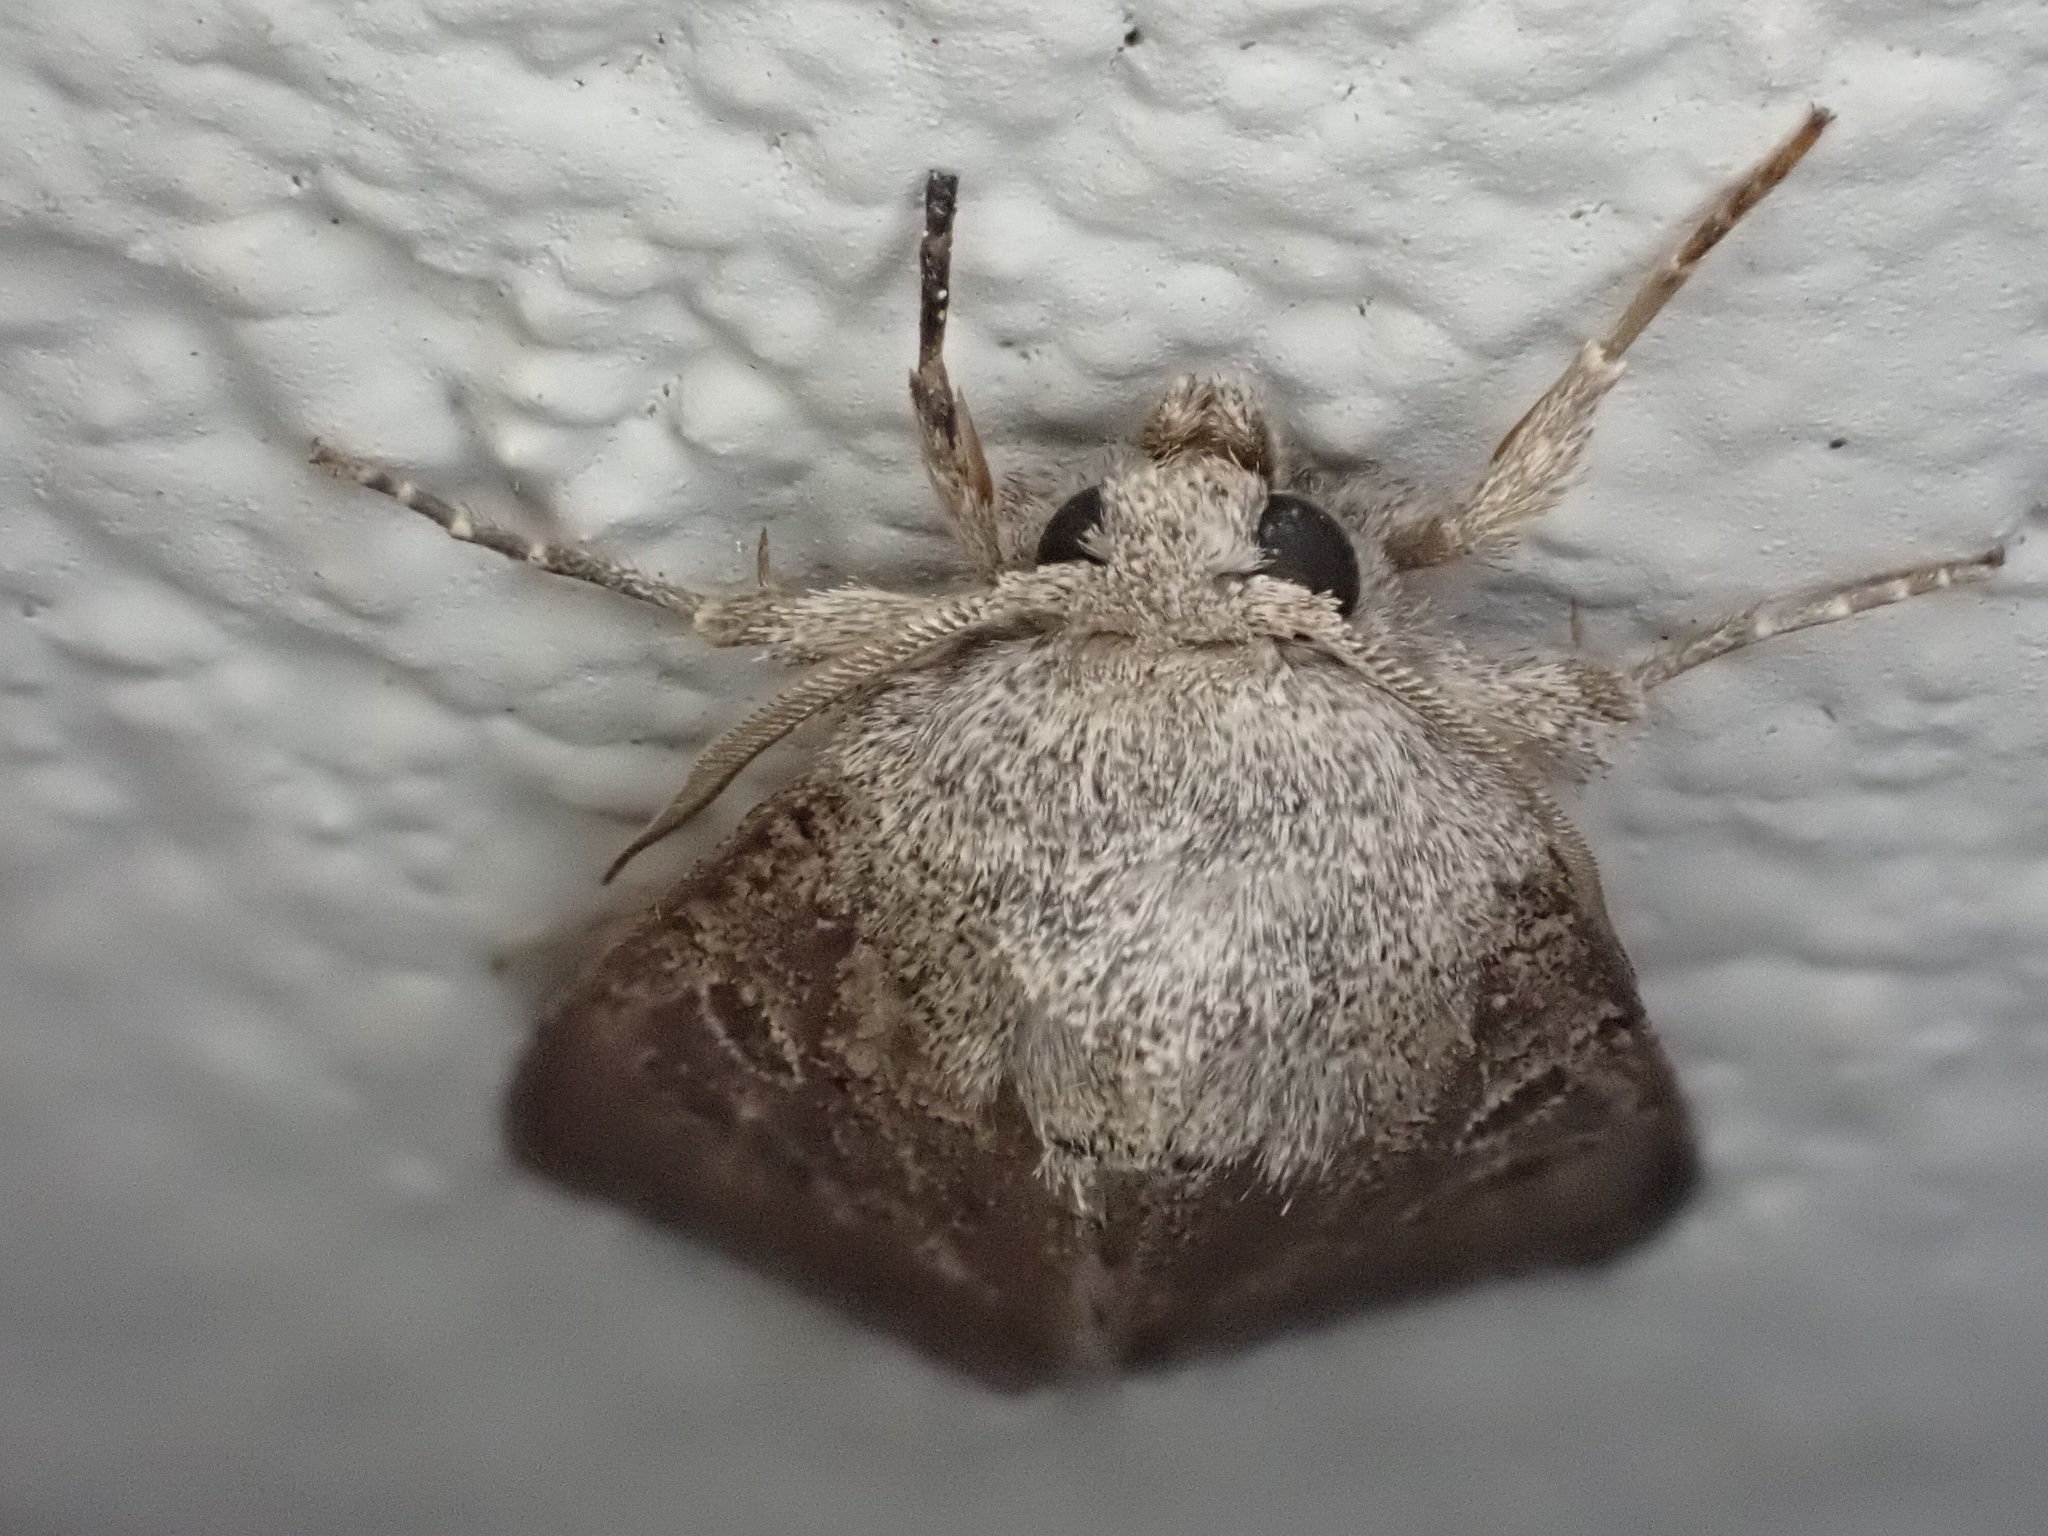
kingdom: Animalia
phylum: Arthropoda
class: Insecta
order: Lepidoptera
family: Noctuidae
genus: Trichopolia
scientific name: Trichopolia
